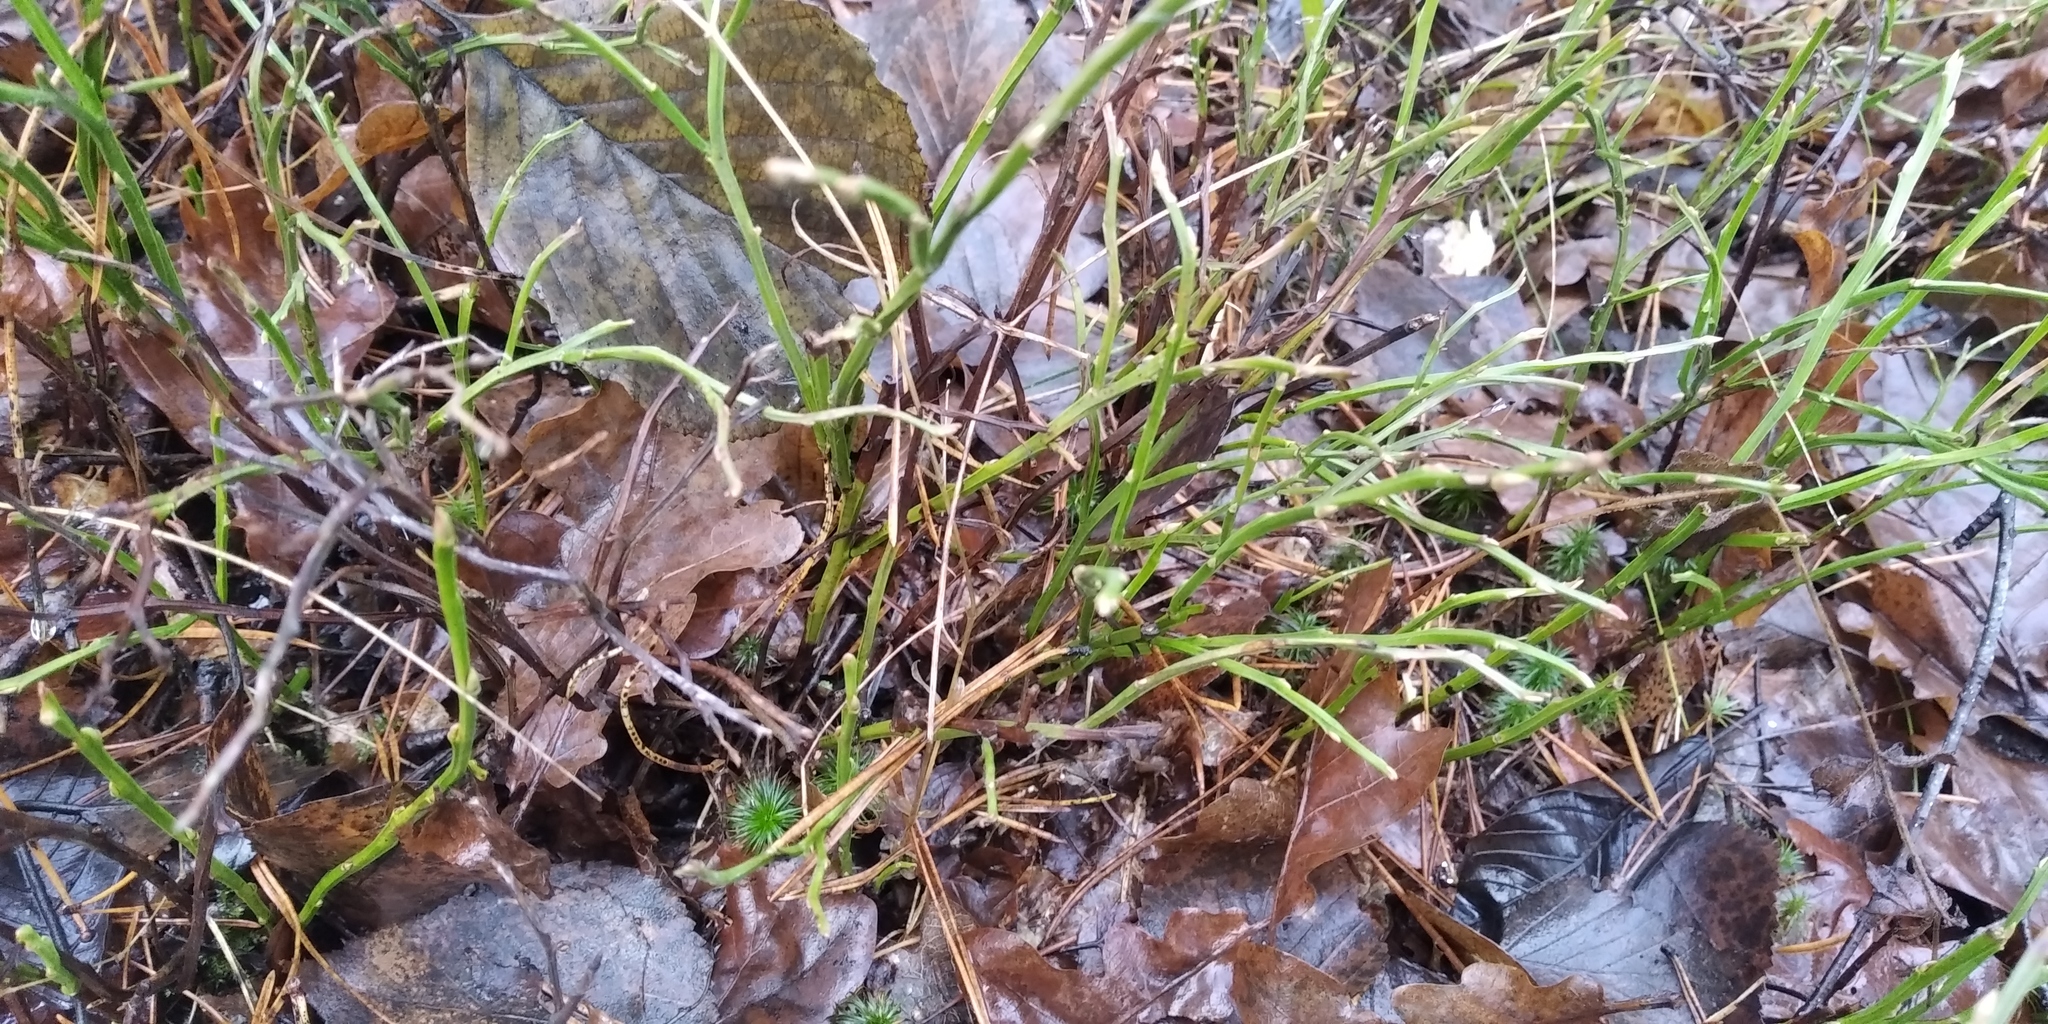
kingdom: Plantae
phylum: Tracheophyta
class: Magnoliopsida
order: Ericales
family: Ericaceae
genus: Vaccinium
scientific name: Vaccinium myrtillus
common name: Bilberry
